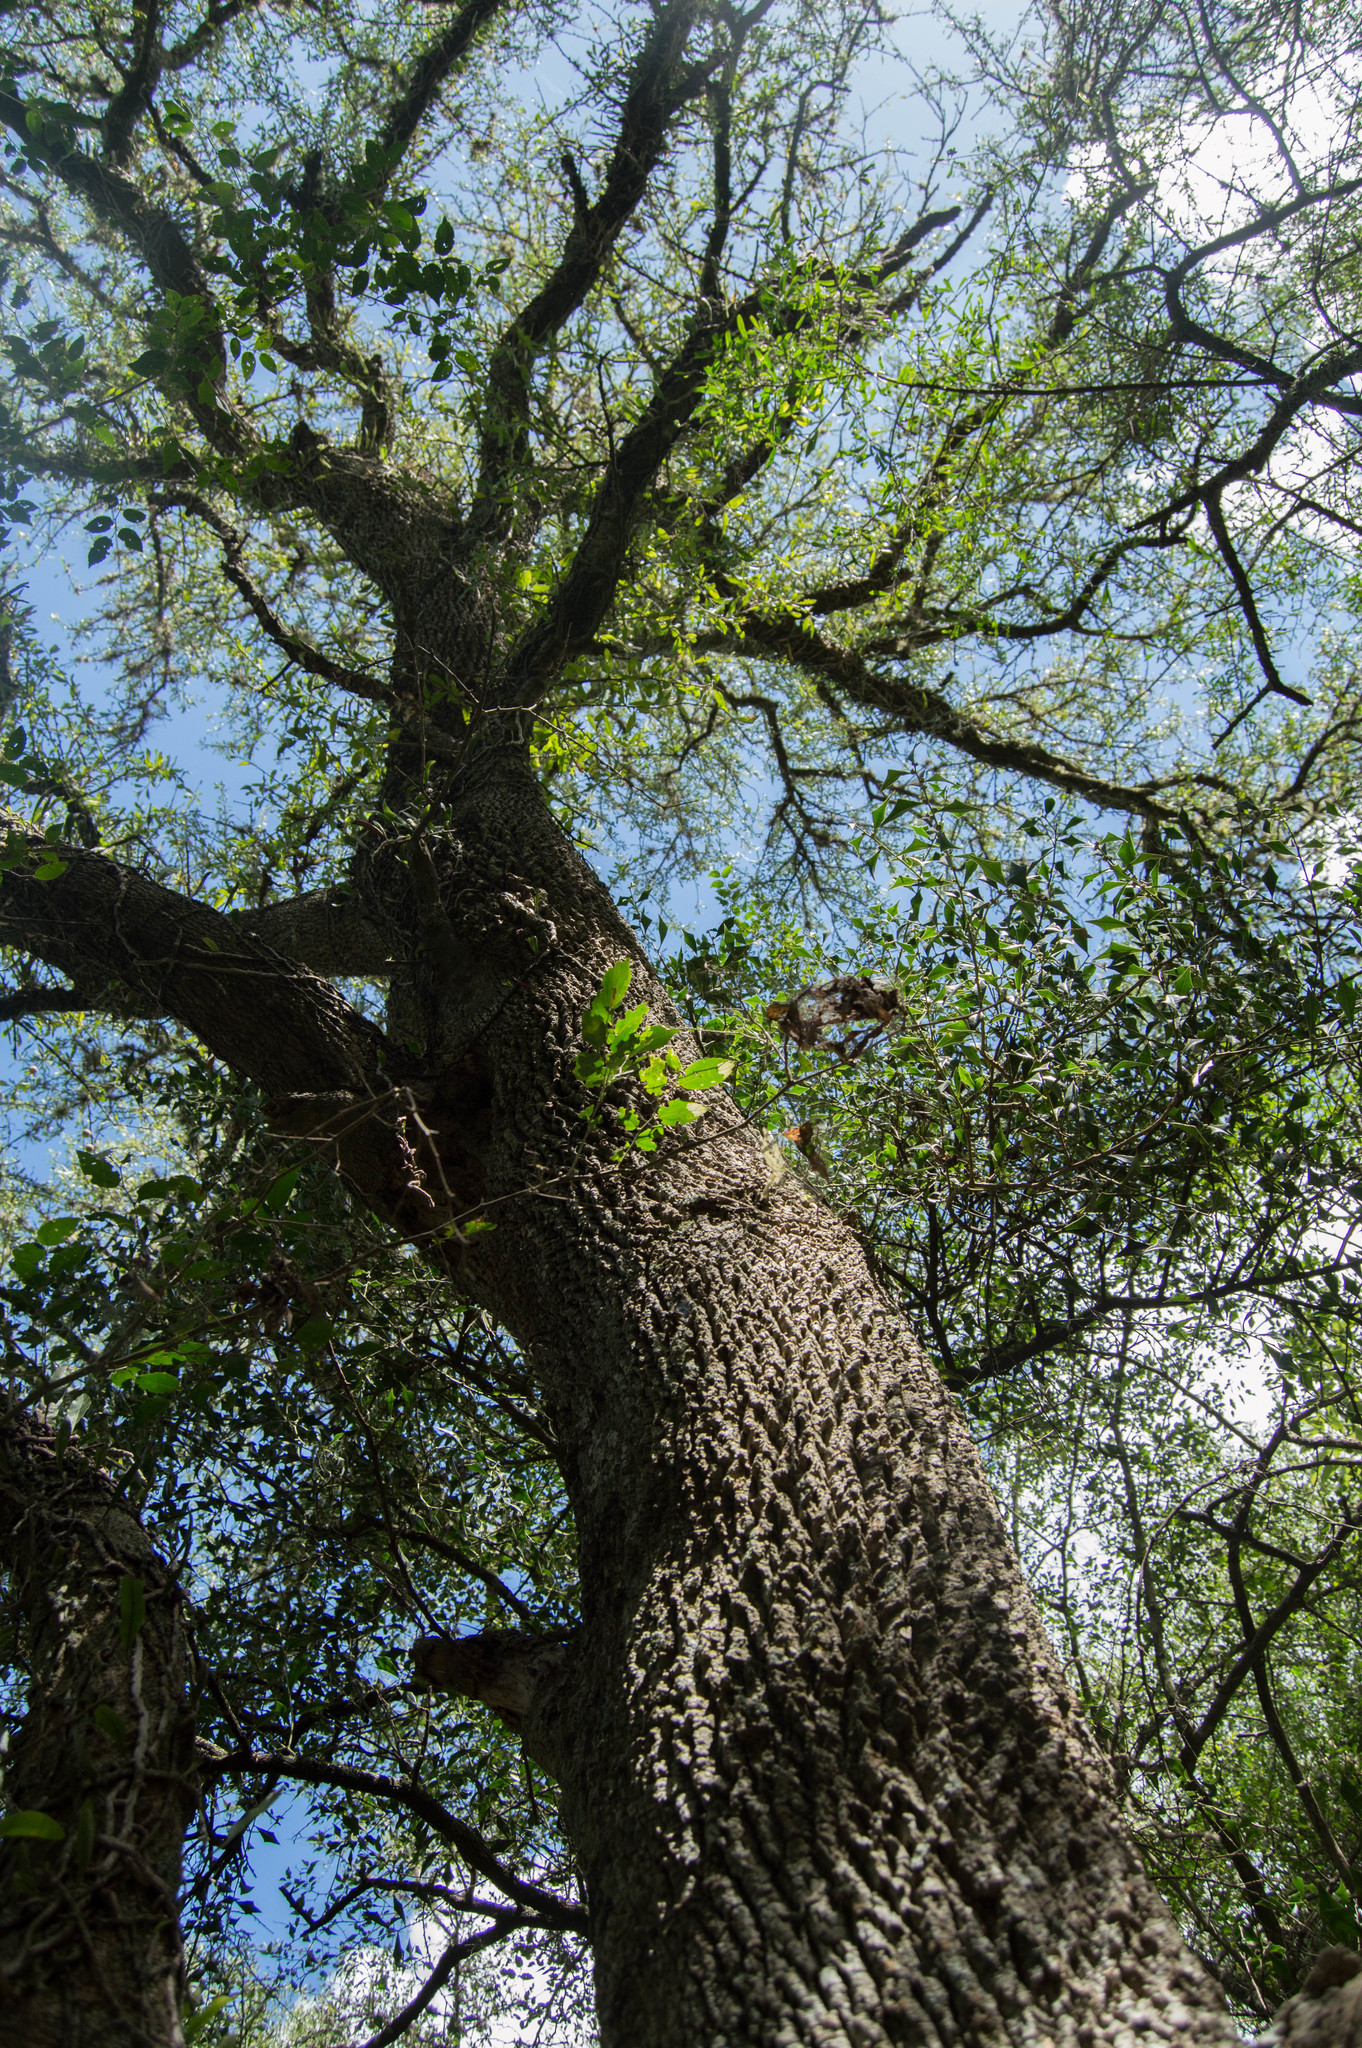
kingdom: Plantae
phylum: Tracheophyta
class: Magnoliopsida
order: Santalales
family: Cervantesiaceae
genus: Acanthosyris
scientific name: Acanthosyris spinescens
